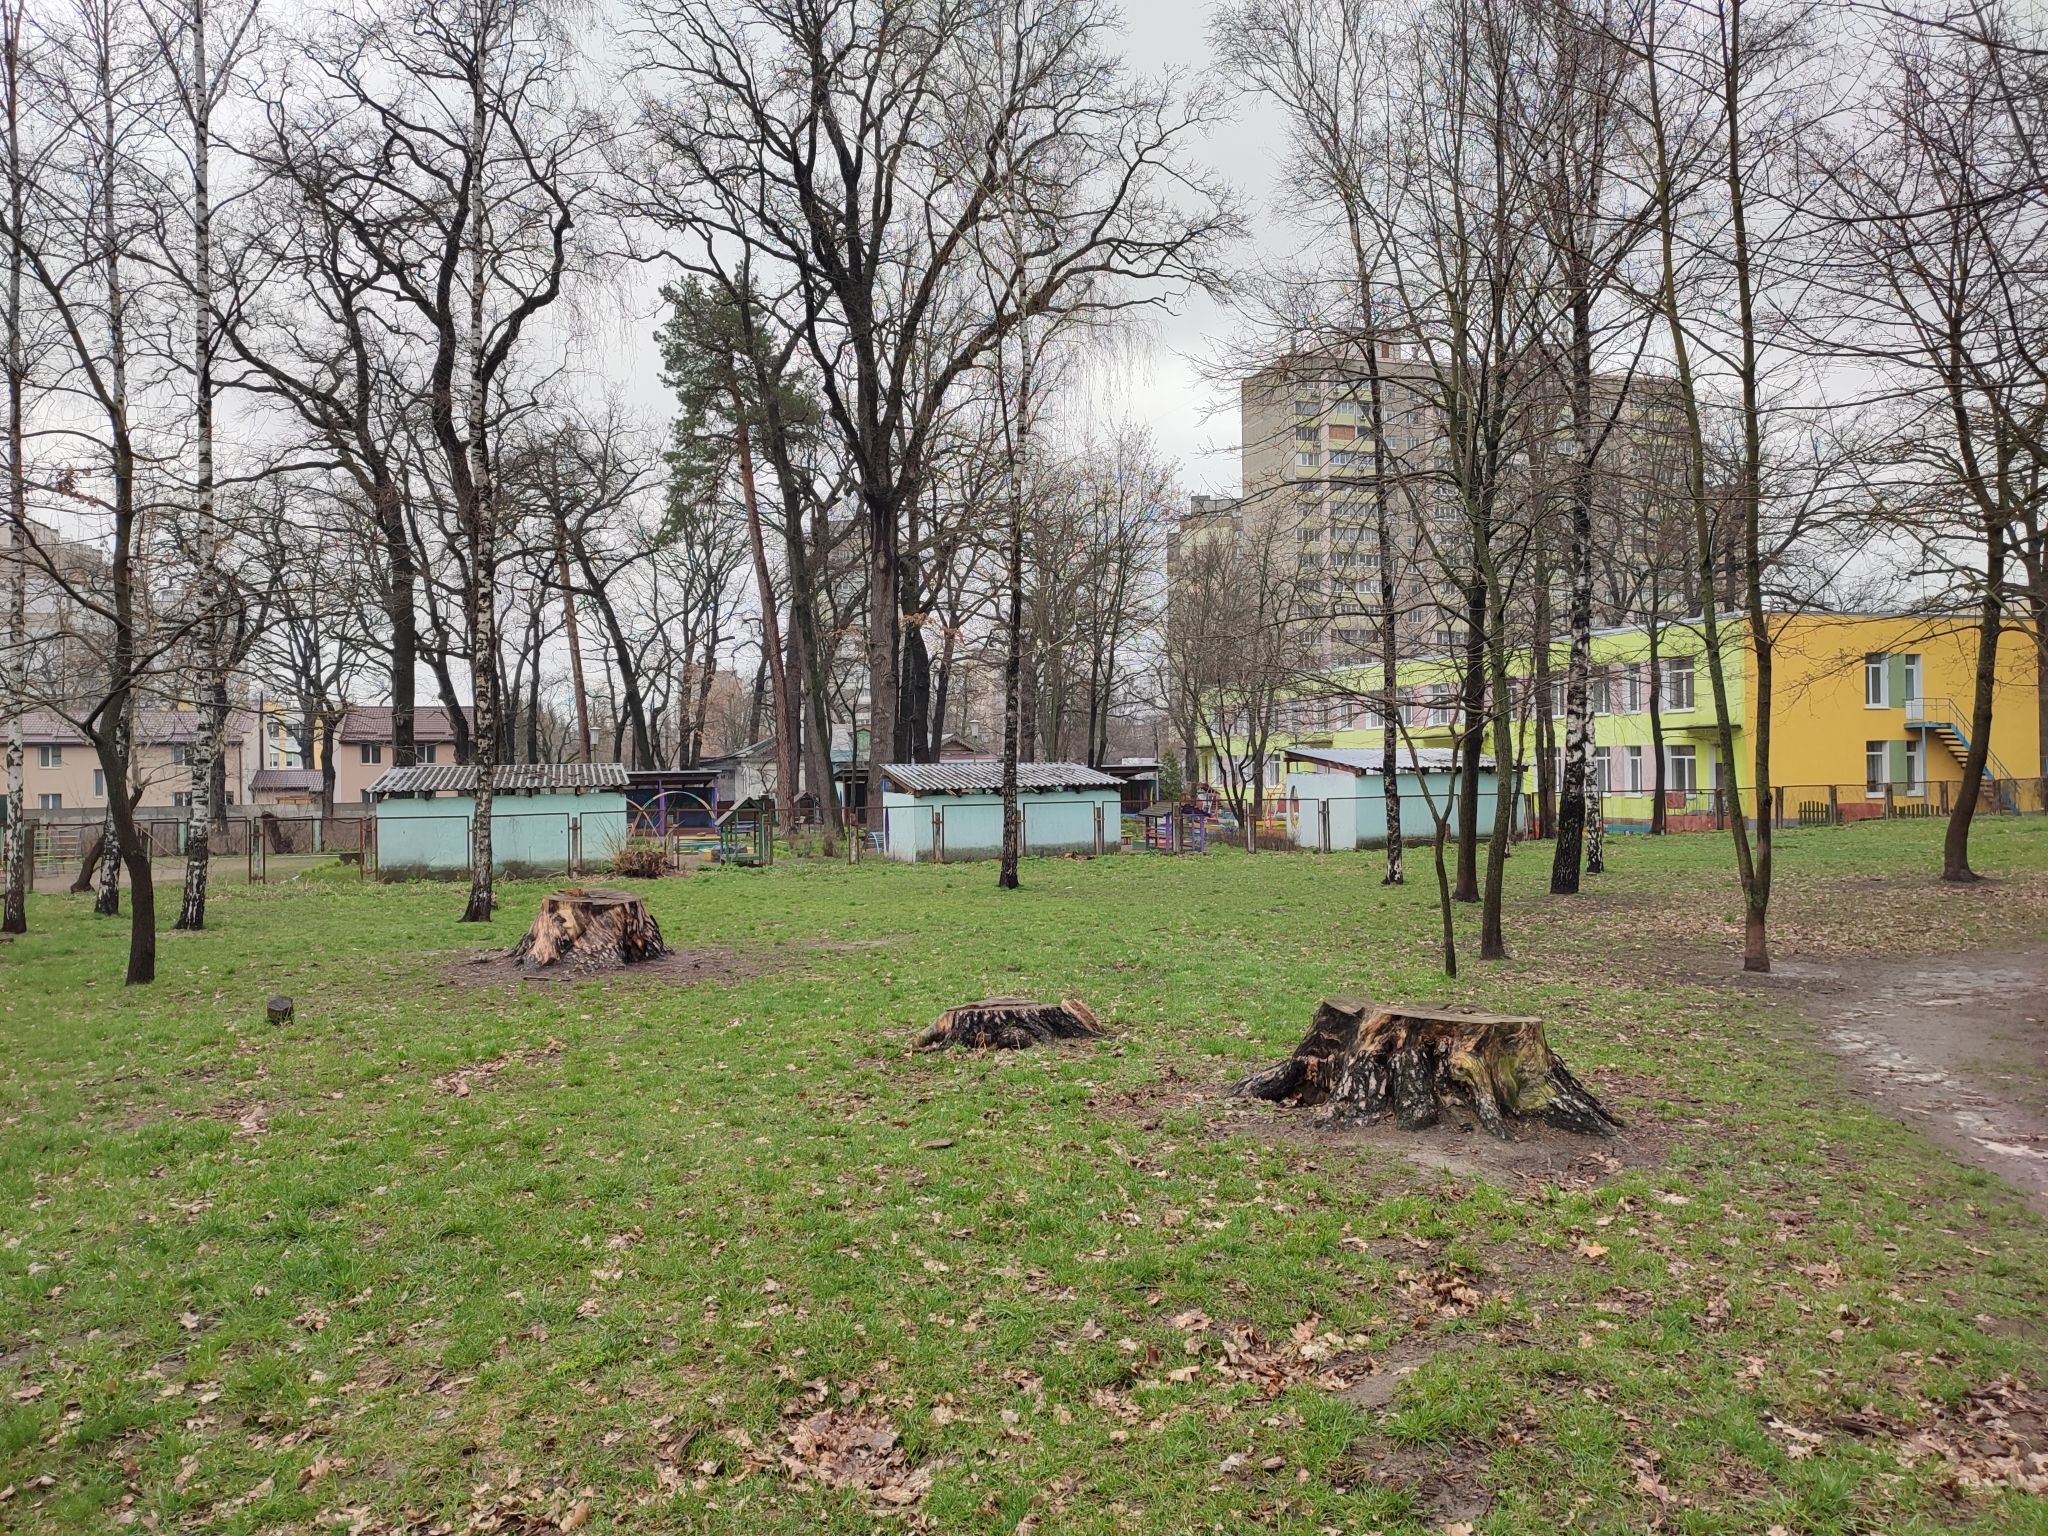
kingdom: Plantae
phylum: Tracheophyta
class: Pinopsida
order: Pinales
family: Pinaceae
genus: Pinus
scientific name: Pinus sylvestris
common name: Scots pine
